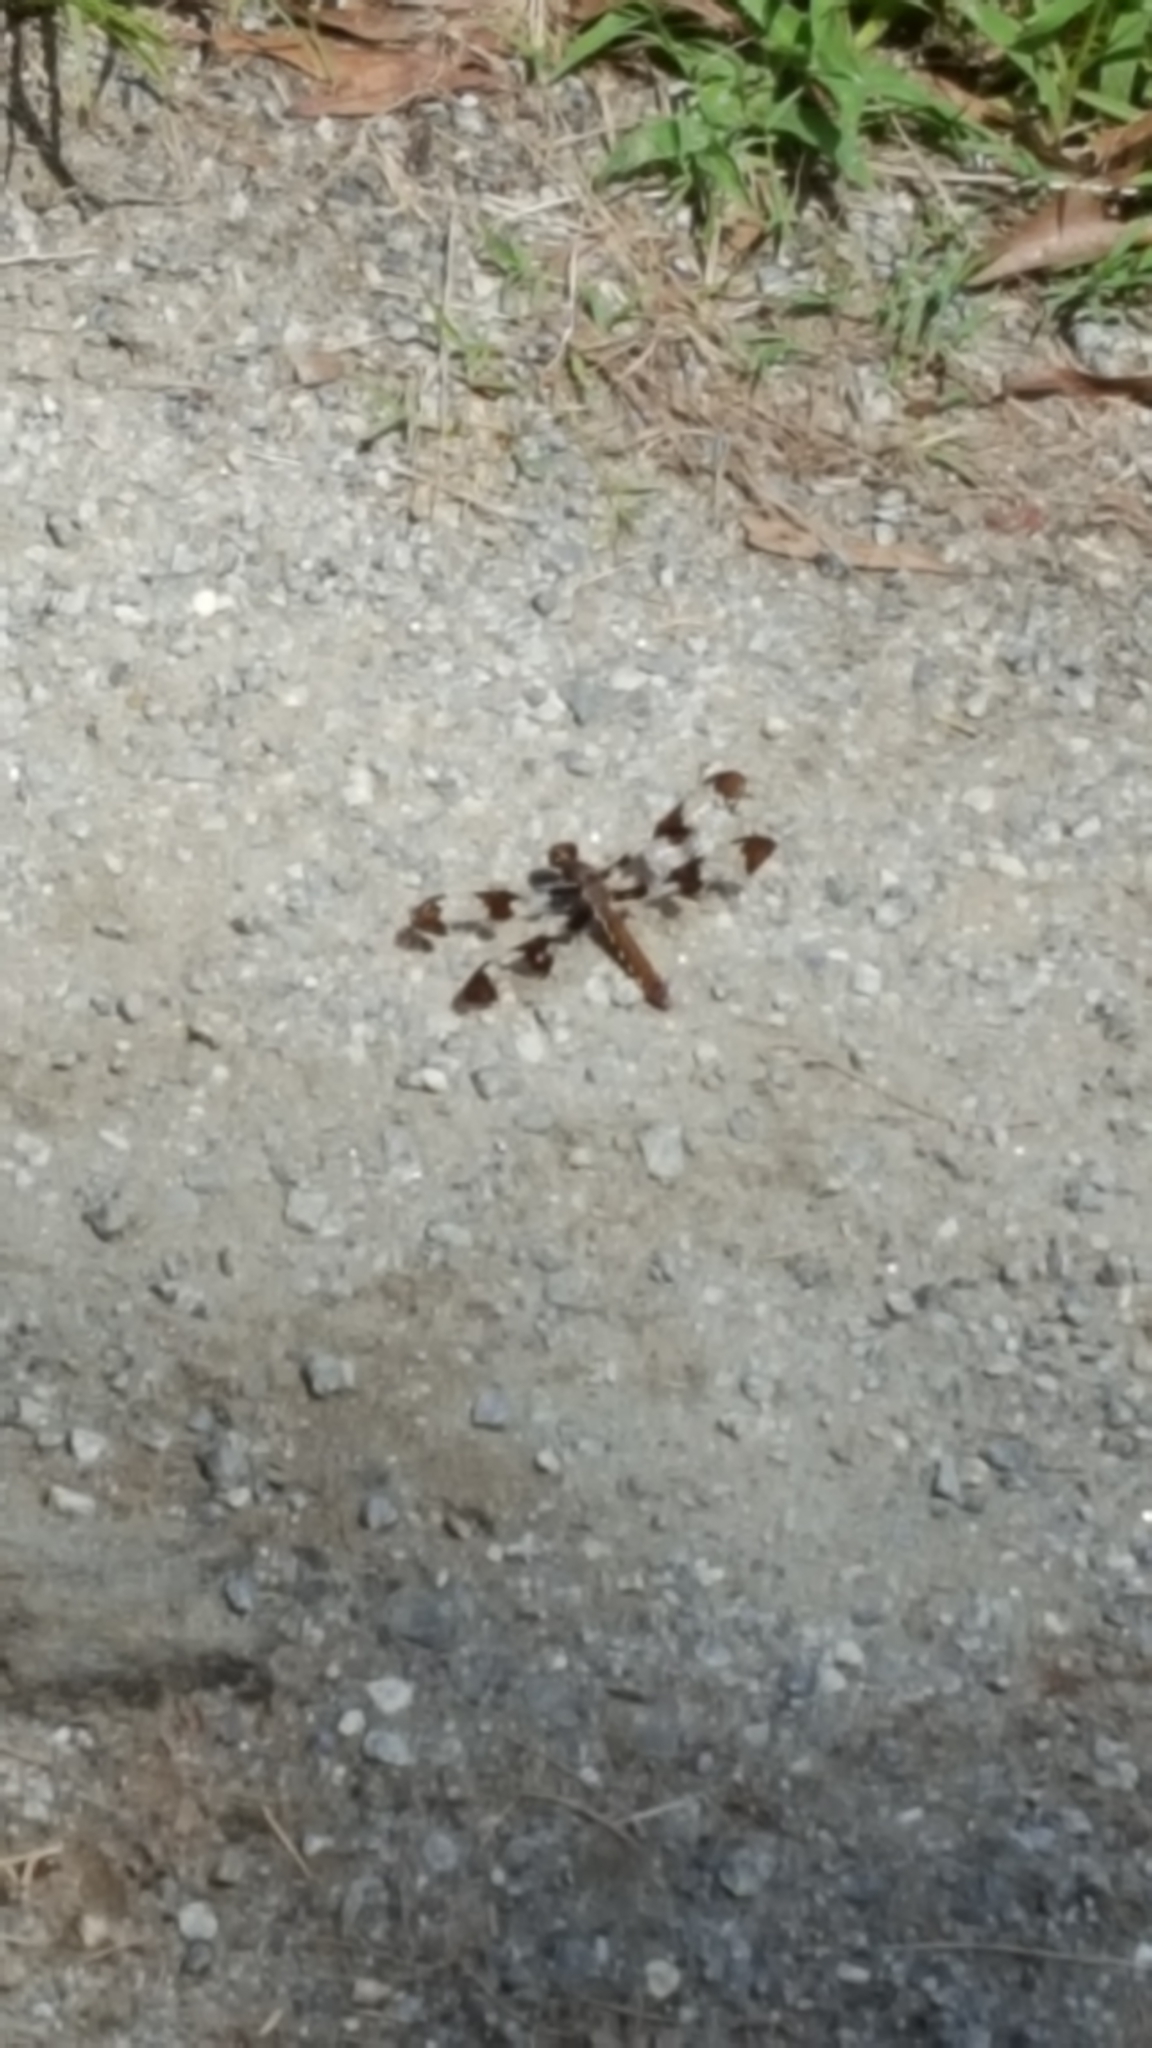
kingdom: Animalia
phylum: Arthropoda
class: Insecta
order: Odonata
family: Libellulidae
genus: Plathemis
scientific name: Plathemis lydia
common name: Common whitetail
